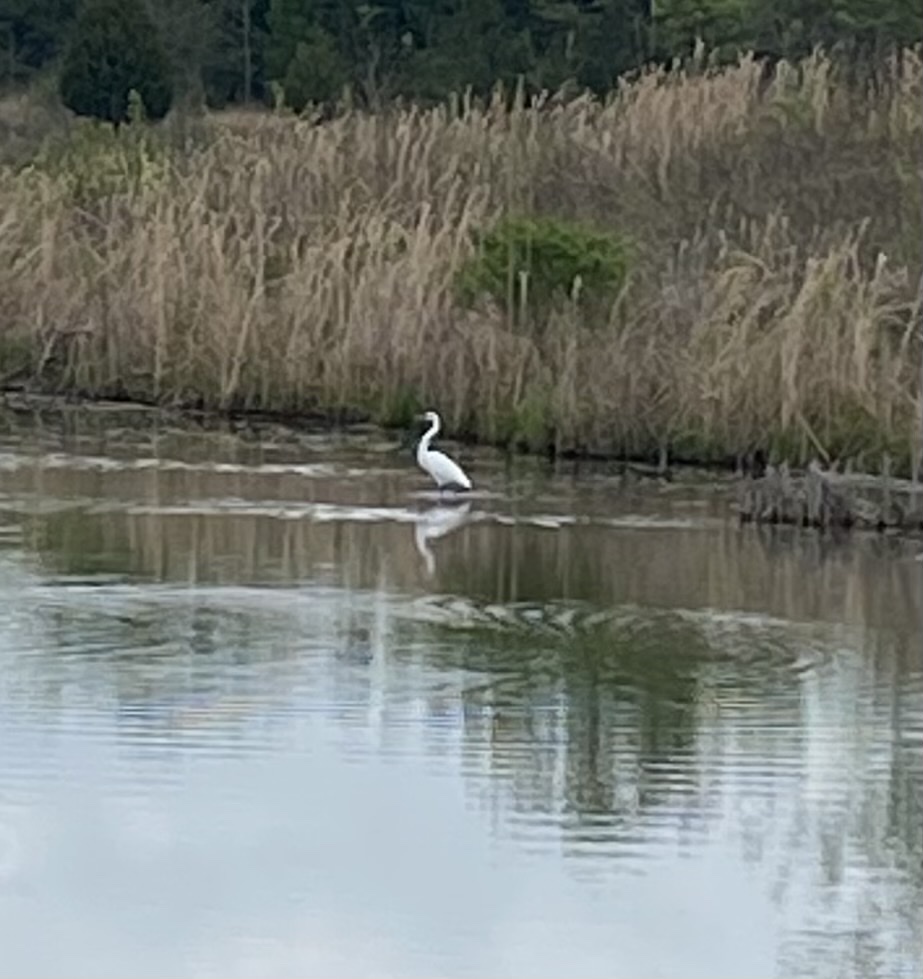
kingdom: Animalia
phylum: Chordata
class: Aves
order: Pelecaniformes
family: Ardeidae
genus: Ardea
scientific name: Ardea alba
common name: Great egret
